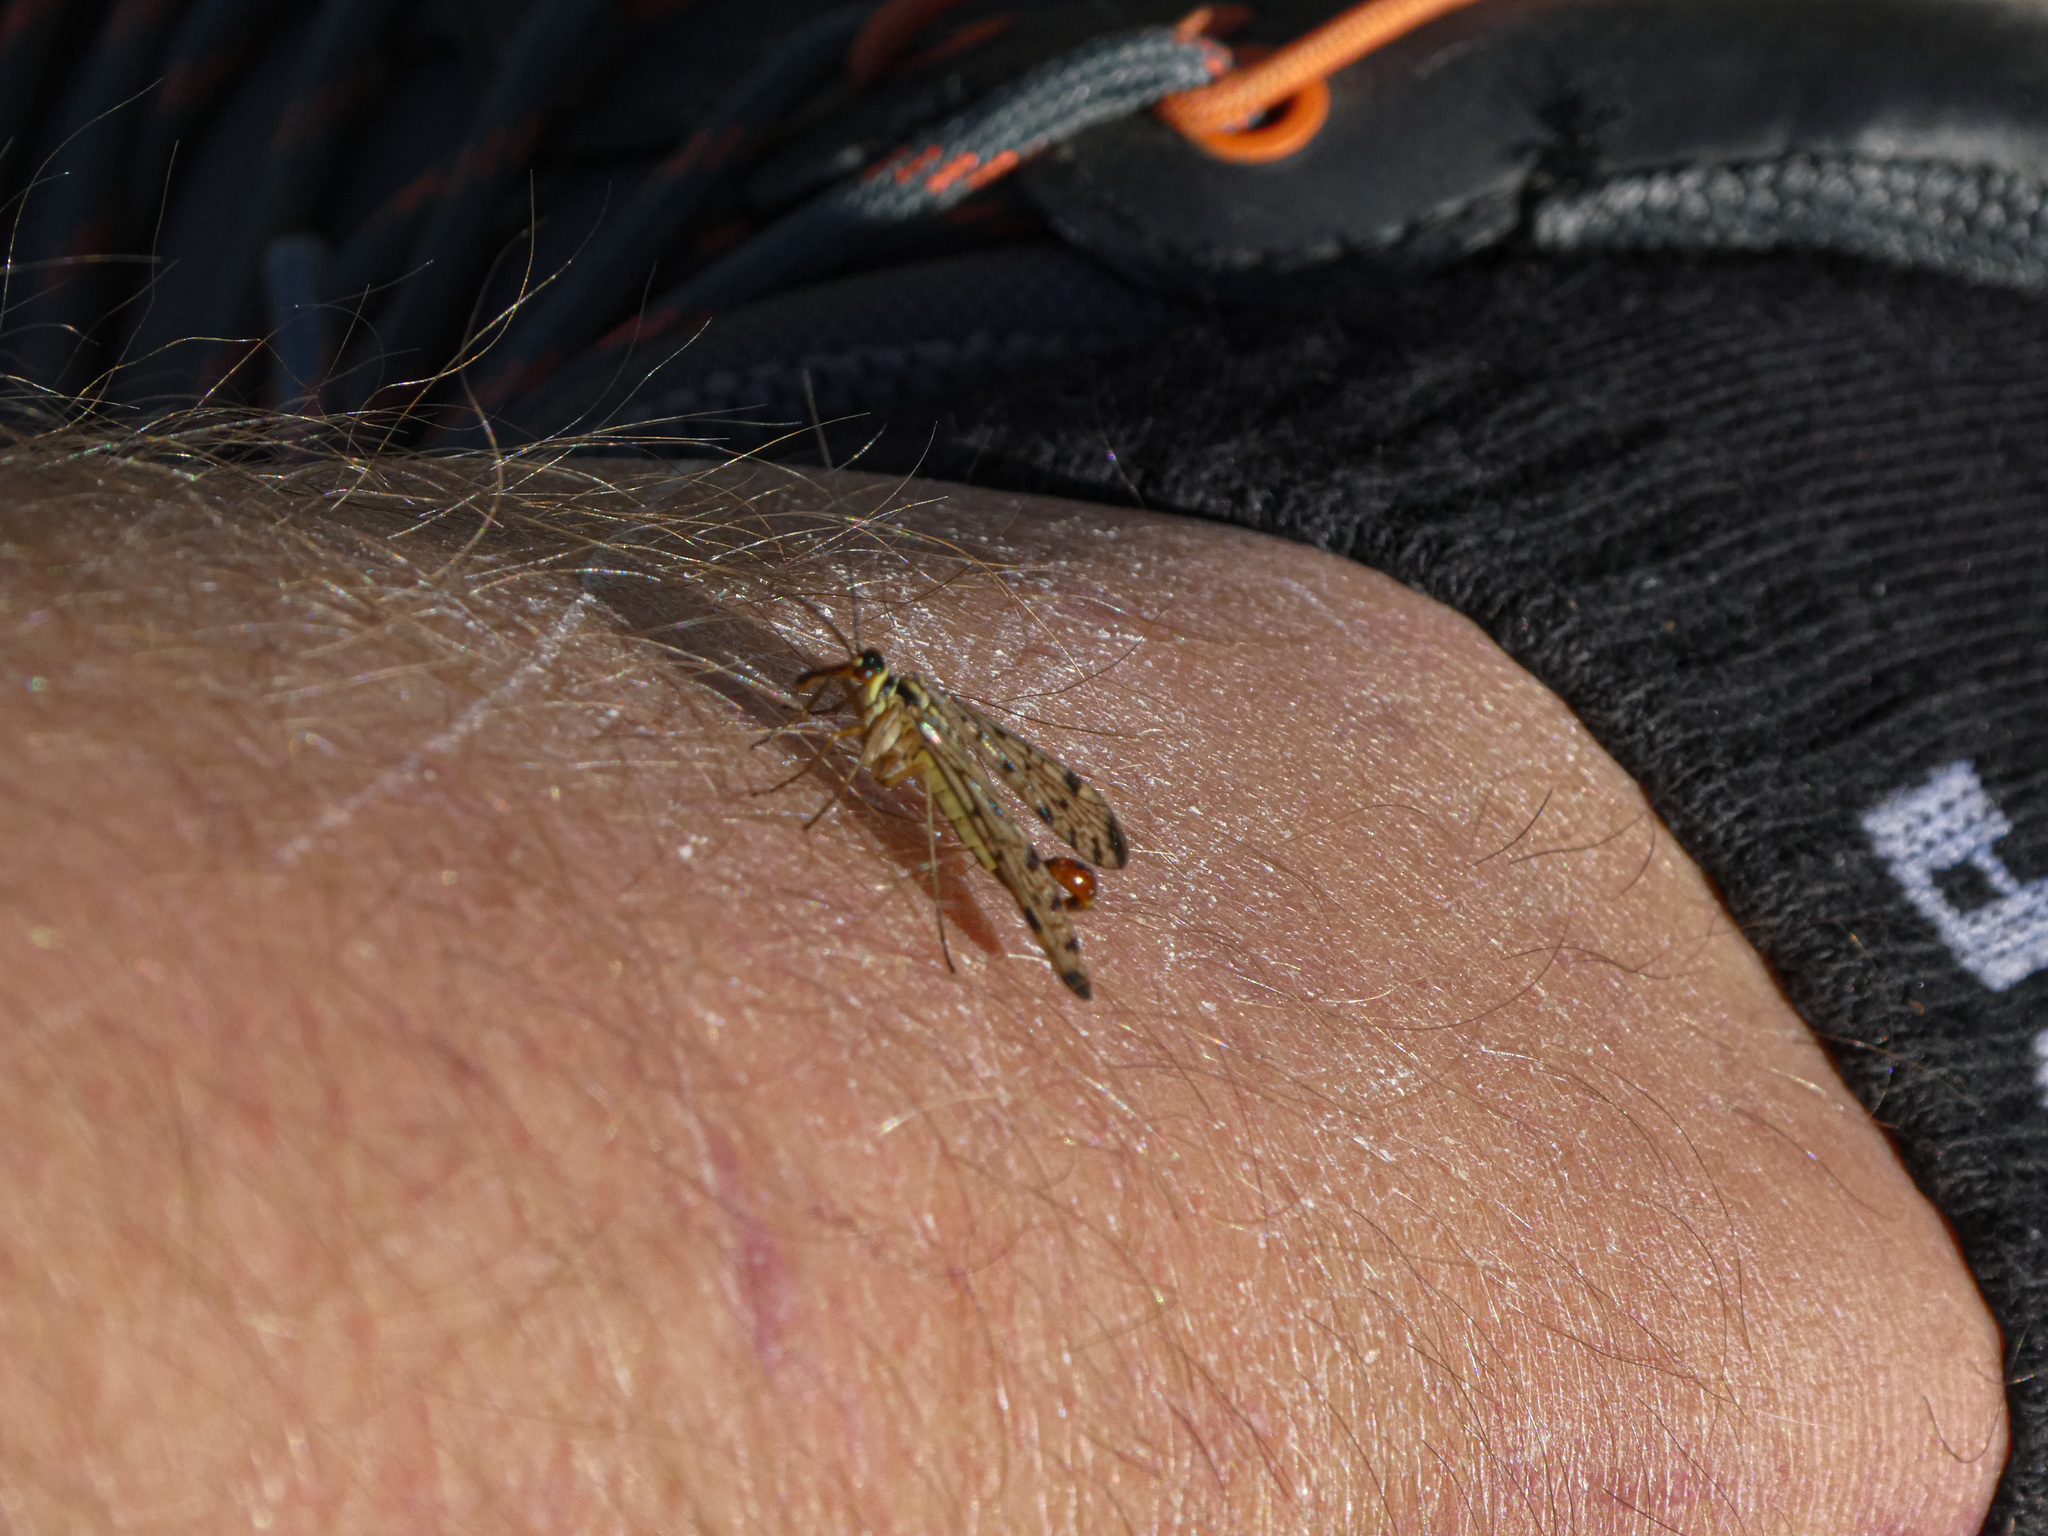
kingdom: Animalia
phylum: Arthropoda
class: Insecta
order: Mecoptera
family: Panorpidae
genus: Panorpa
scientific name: Panorpa germanica
